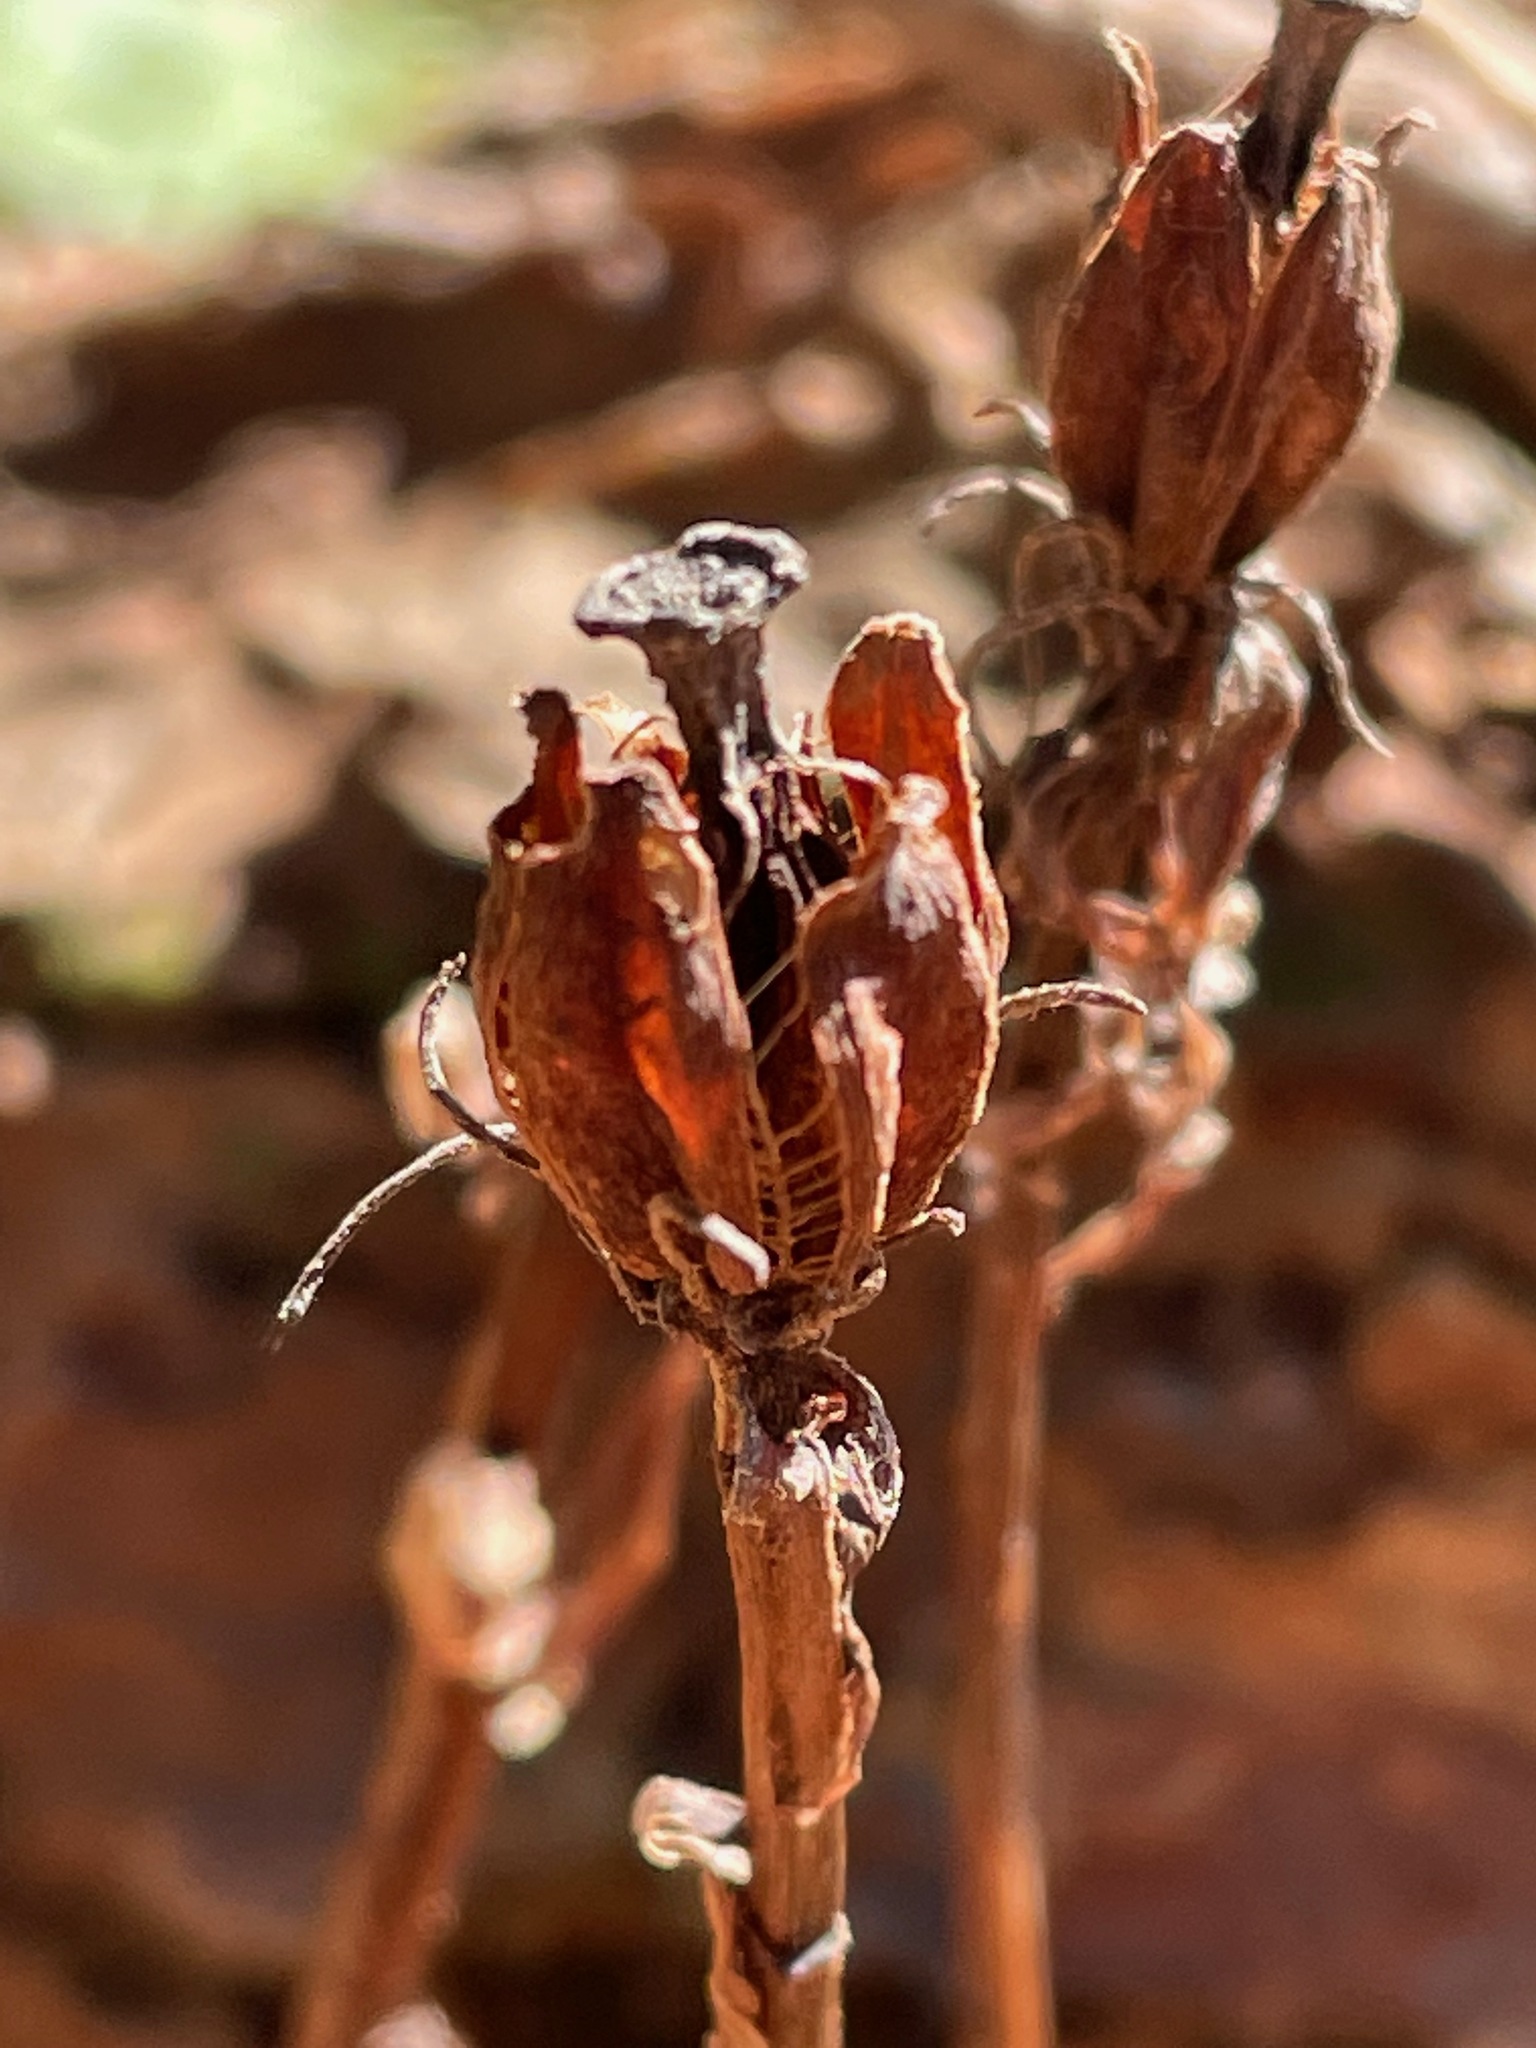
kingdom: Plantae
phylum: Tracheophyta
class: Magnoliopsida
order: Ericales
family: Ericaceae
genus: Monotropa
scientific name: Monotropa uniflora
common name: Convulsion root
